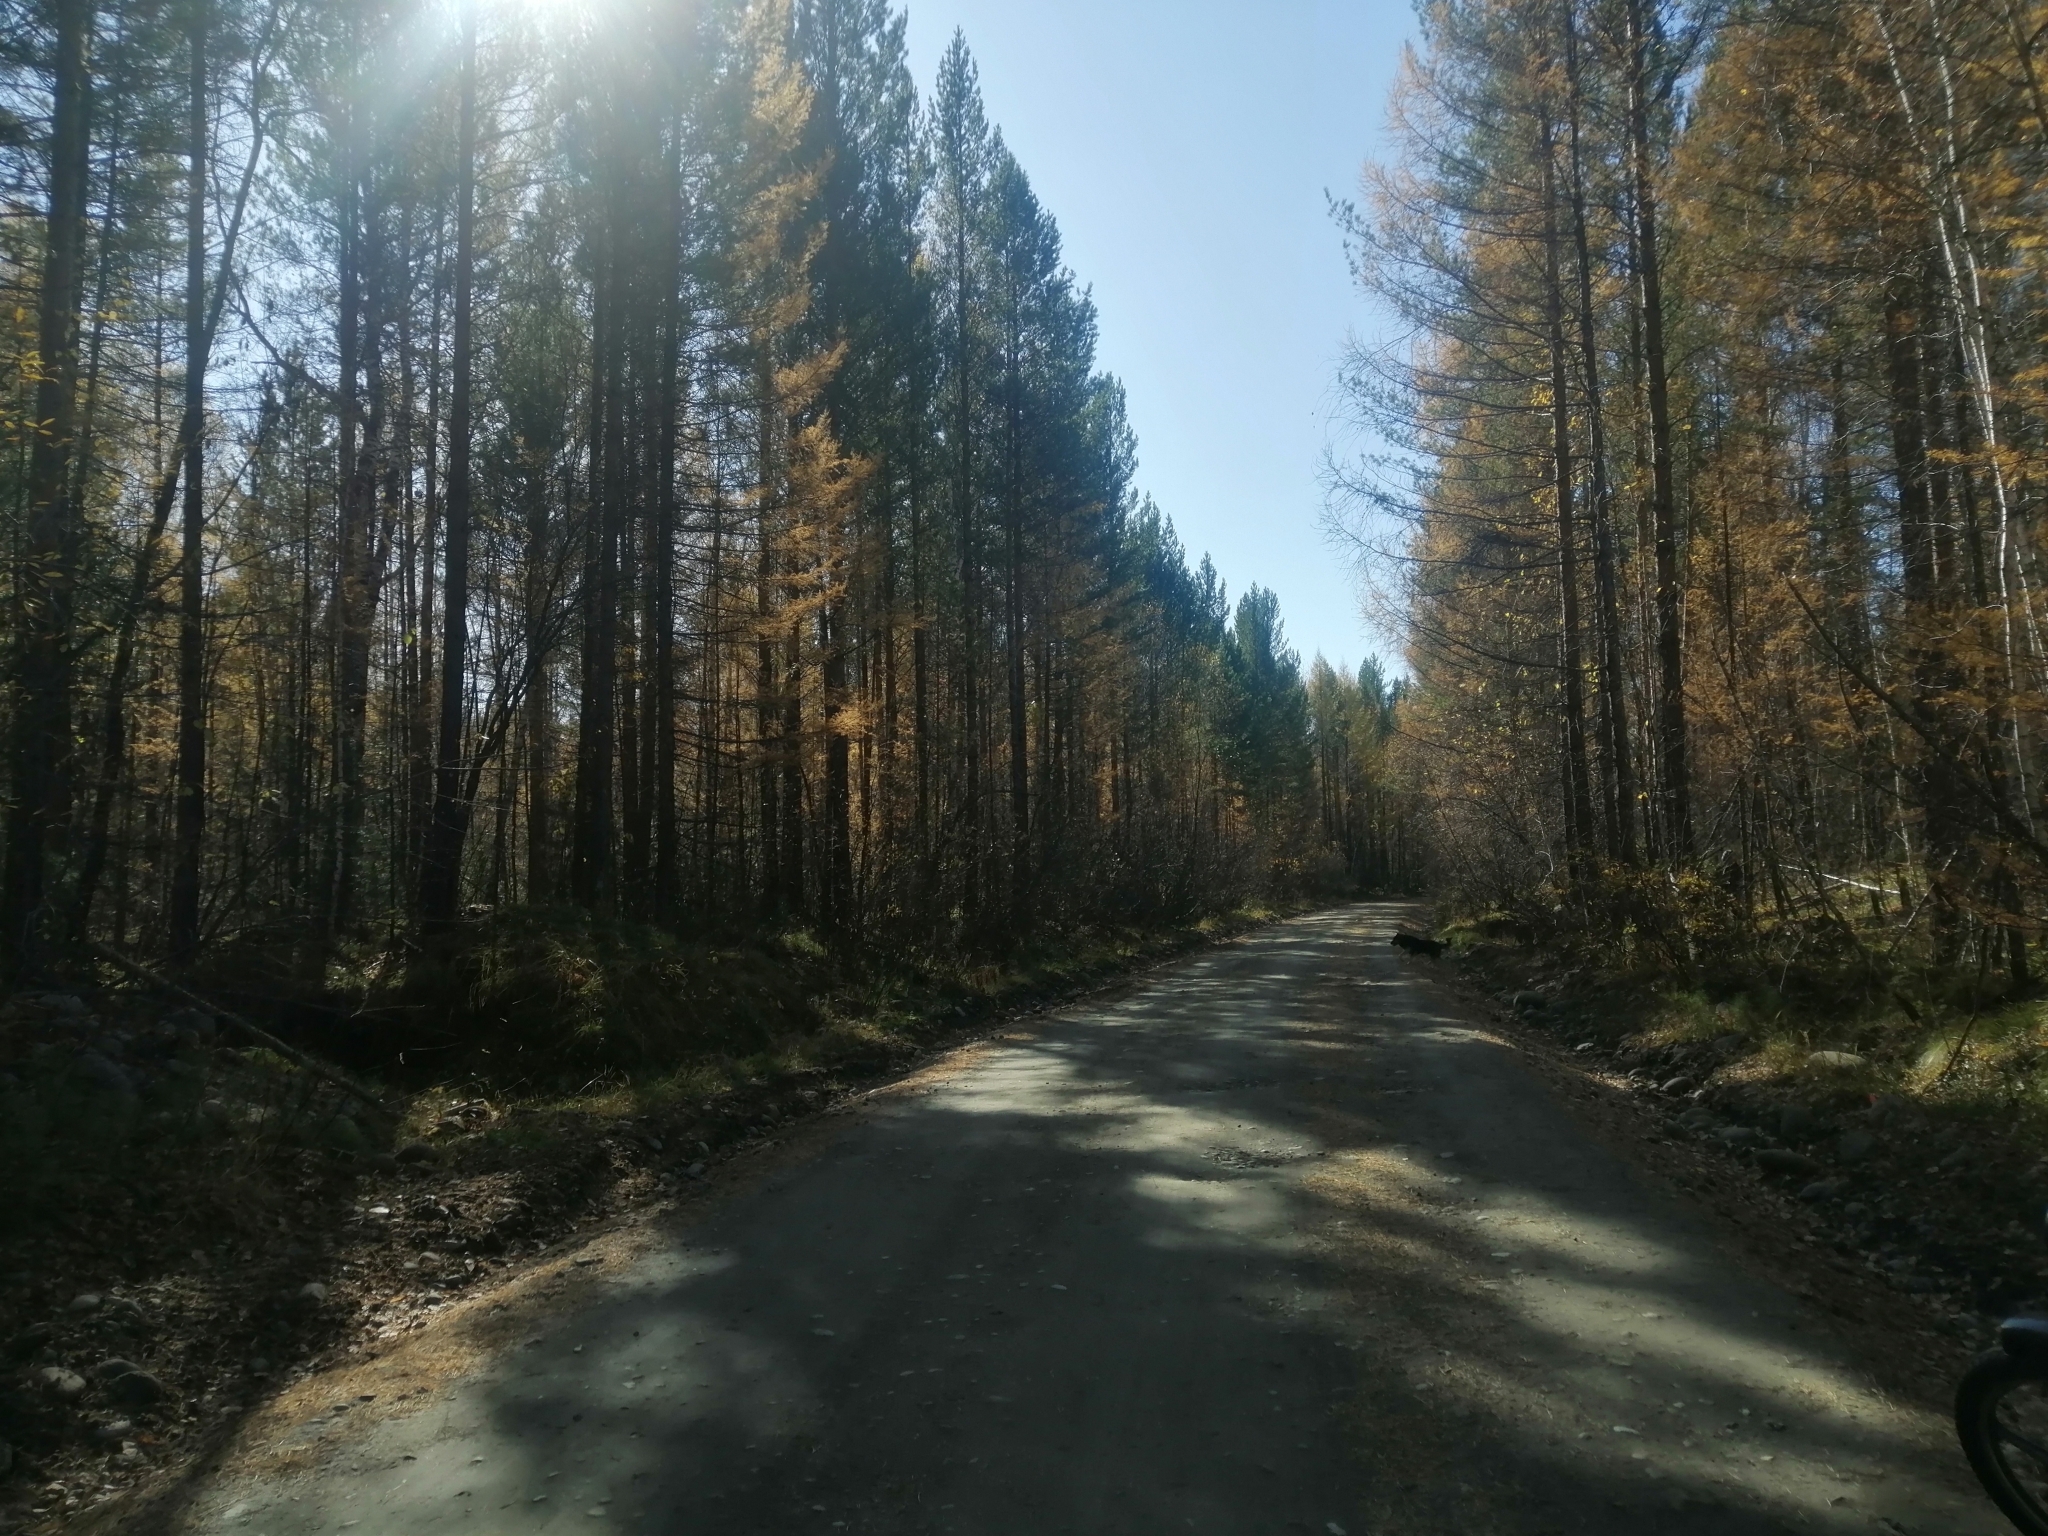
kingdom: Plantae
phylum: Tracheophyta
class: Pinopsida
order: Pinales
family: Pinaceae
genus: Larix
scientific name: Larix sibirica
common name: Siberian larch
